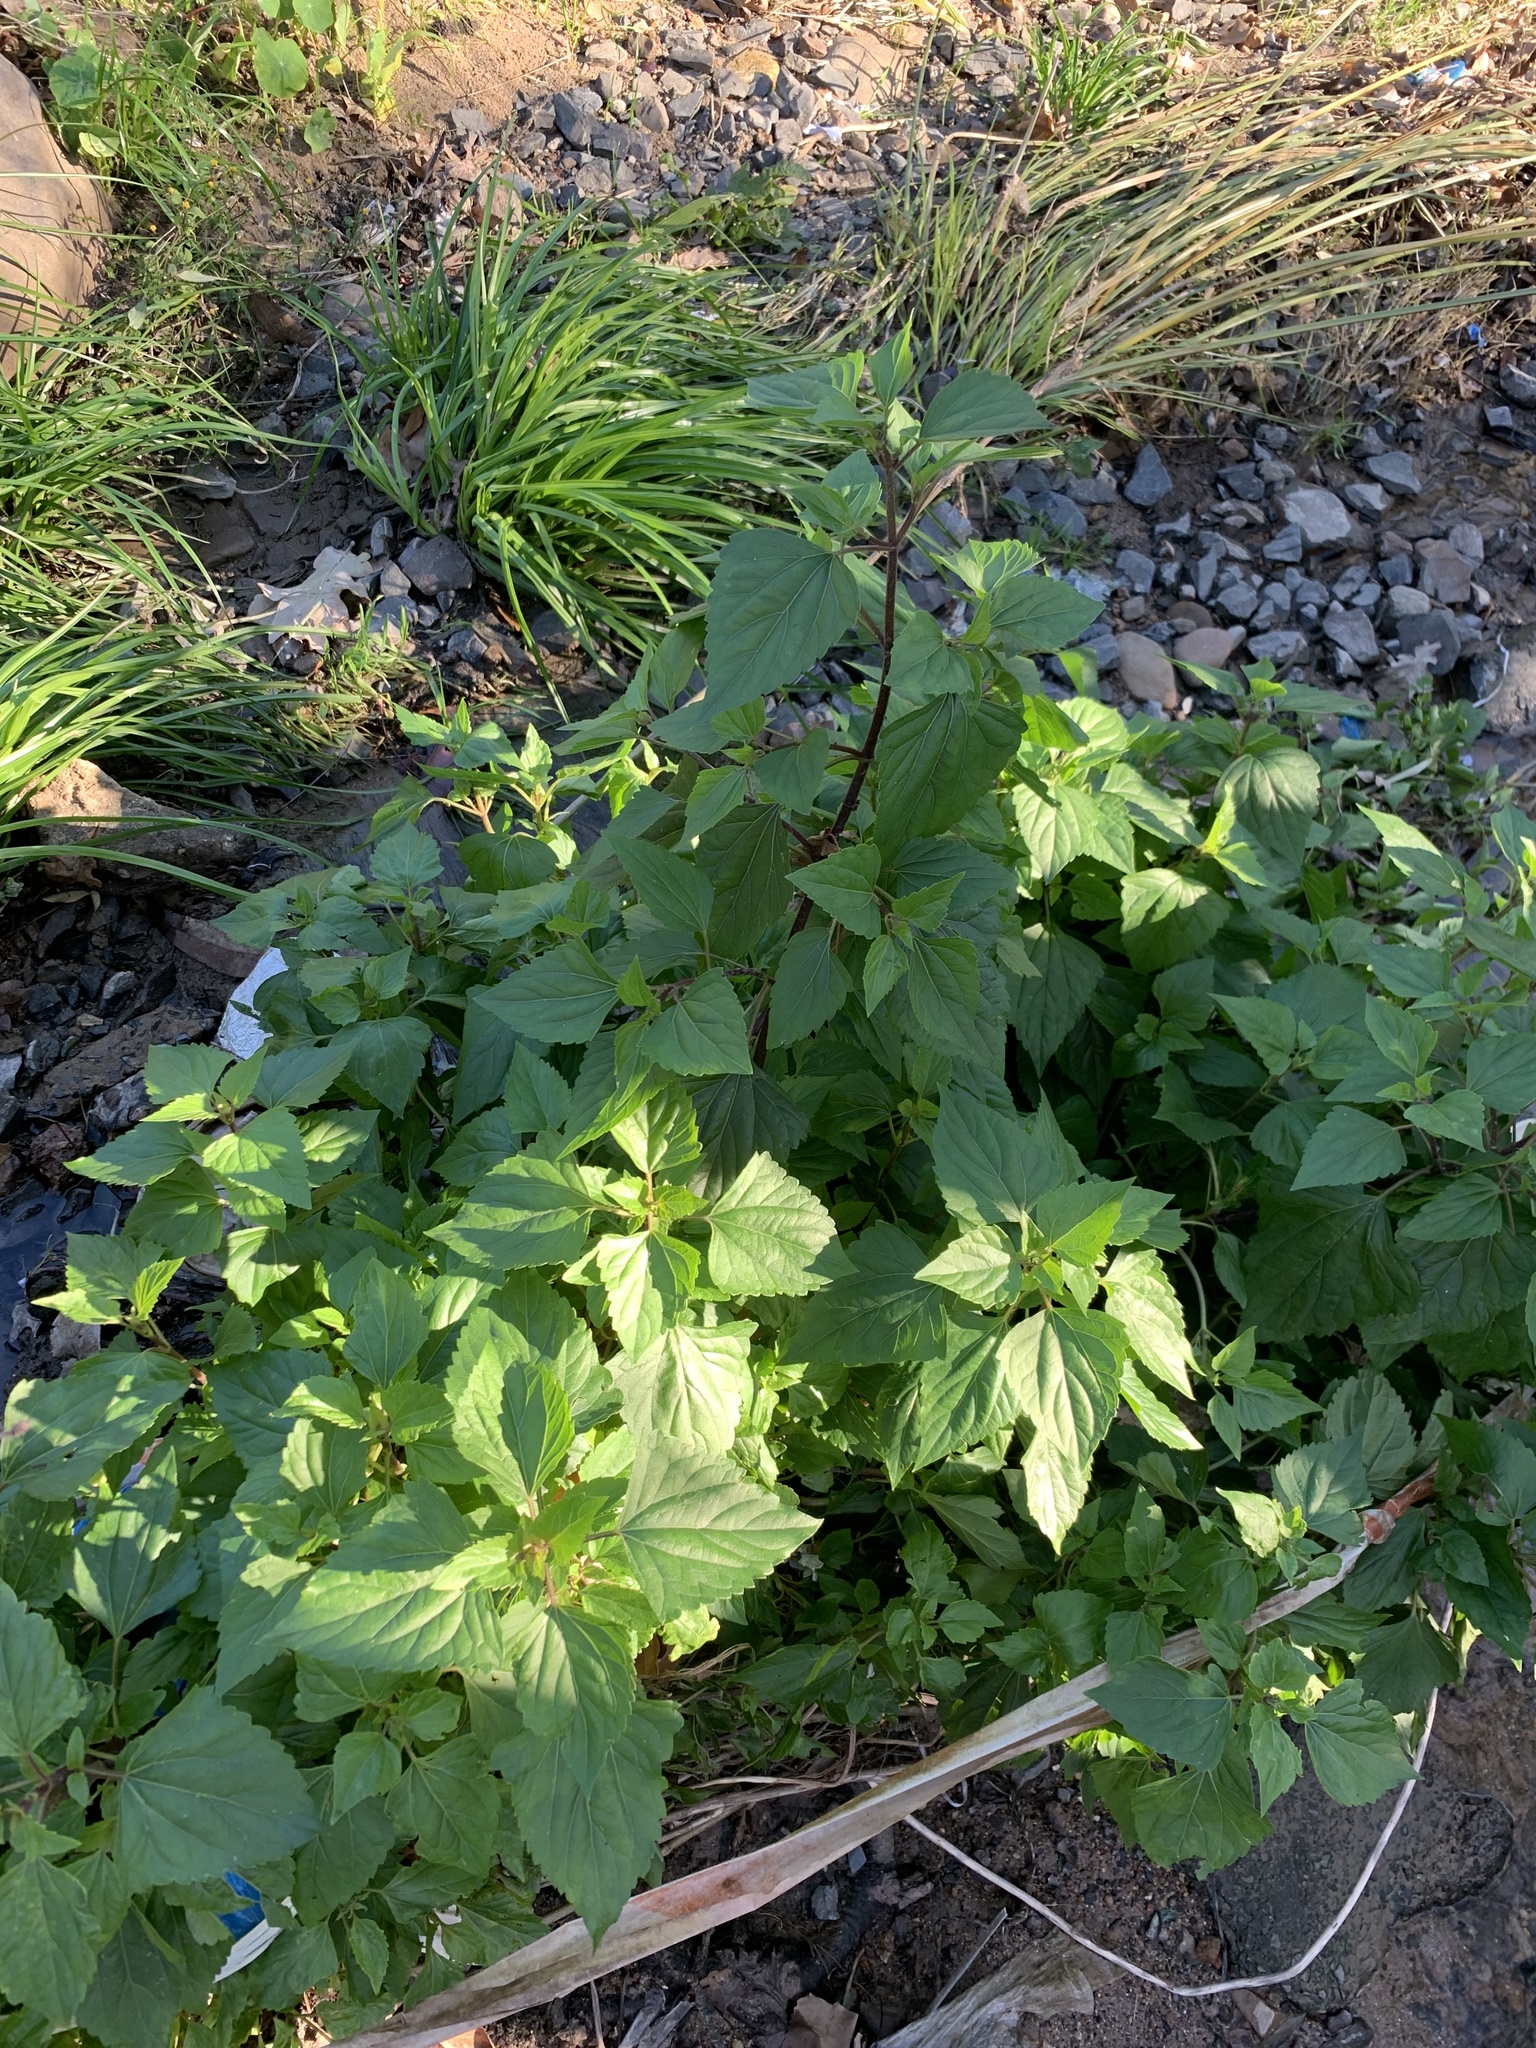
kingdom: Plantae
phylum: Tracheophyta
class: Magnoliopsida
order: Asterales
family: Asteraceae
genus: Ageratina
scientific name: Ageratina adenophora
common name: Sticky snakeroot
